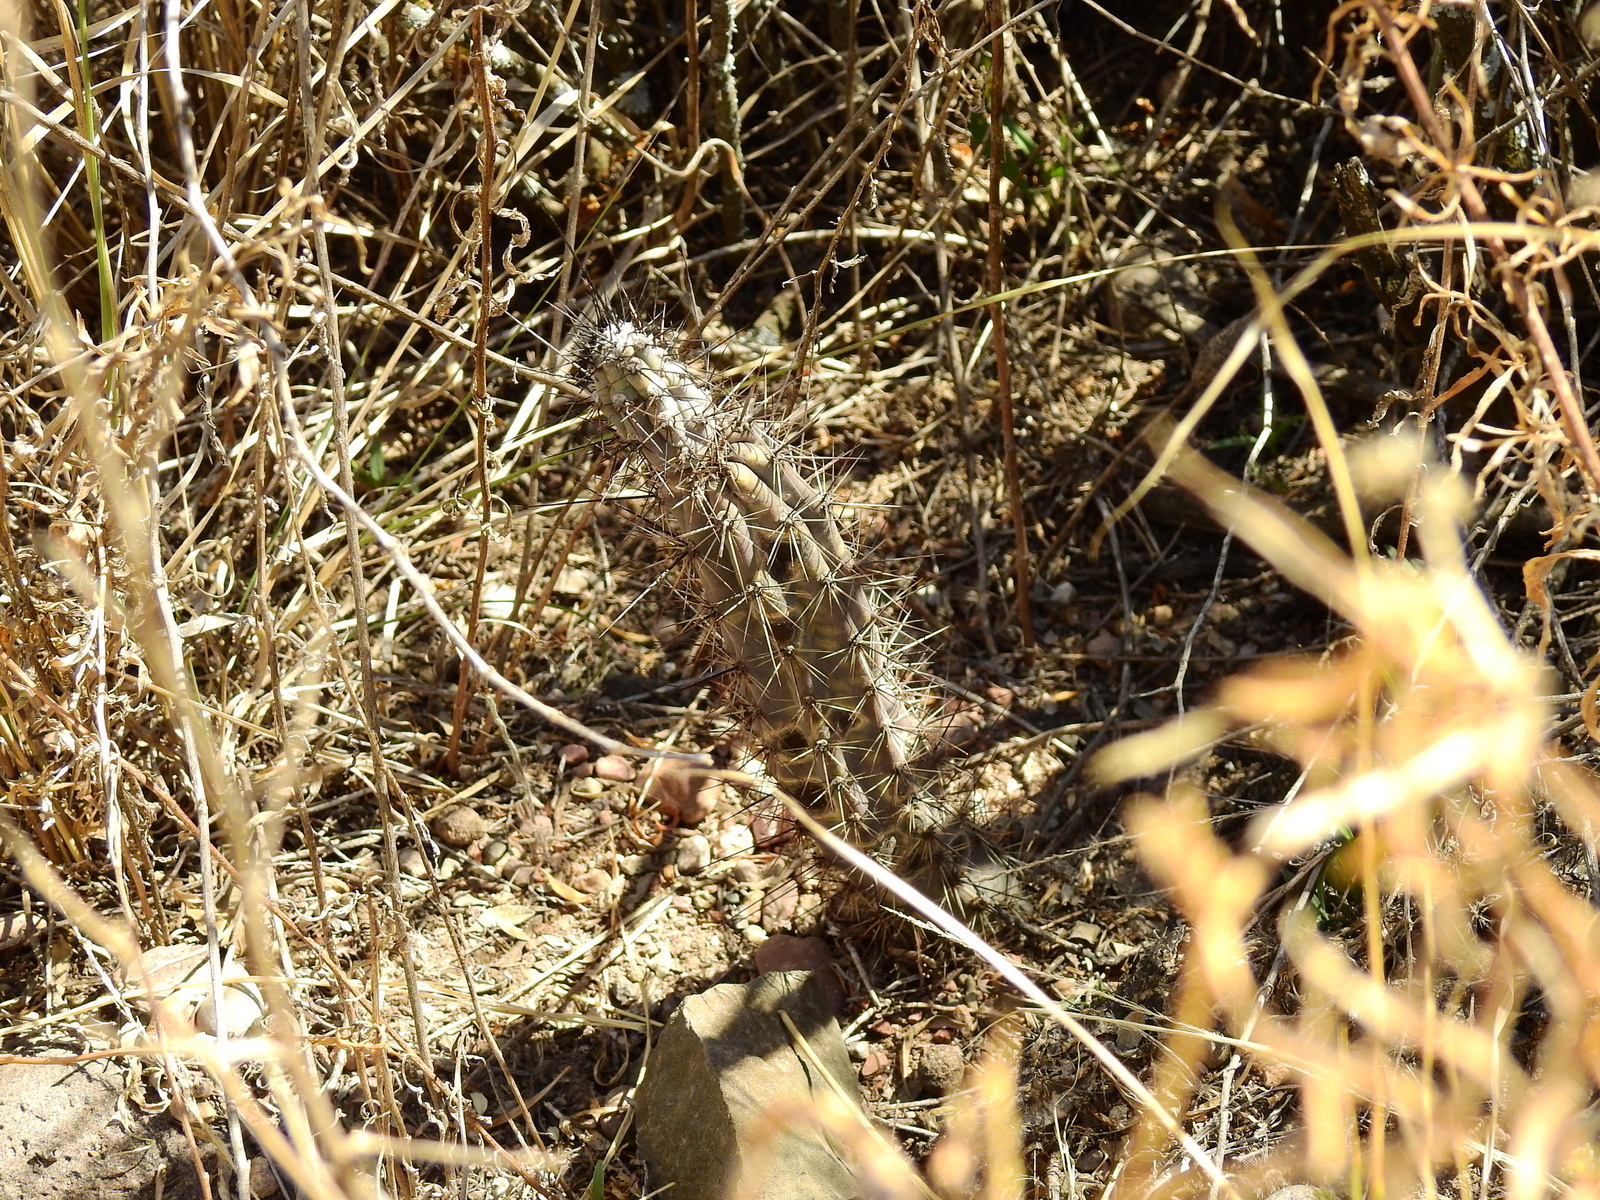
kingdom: Plantae
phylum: Tracheophyta
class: Magnoliopsida
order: Caryophyllales
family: Cactaceae
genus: Cereus
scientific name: Cereus aethiops
